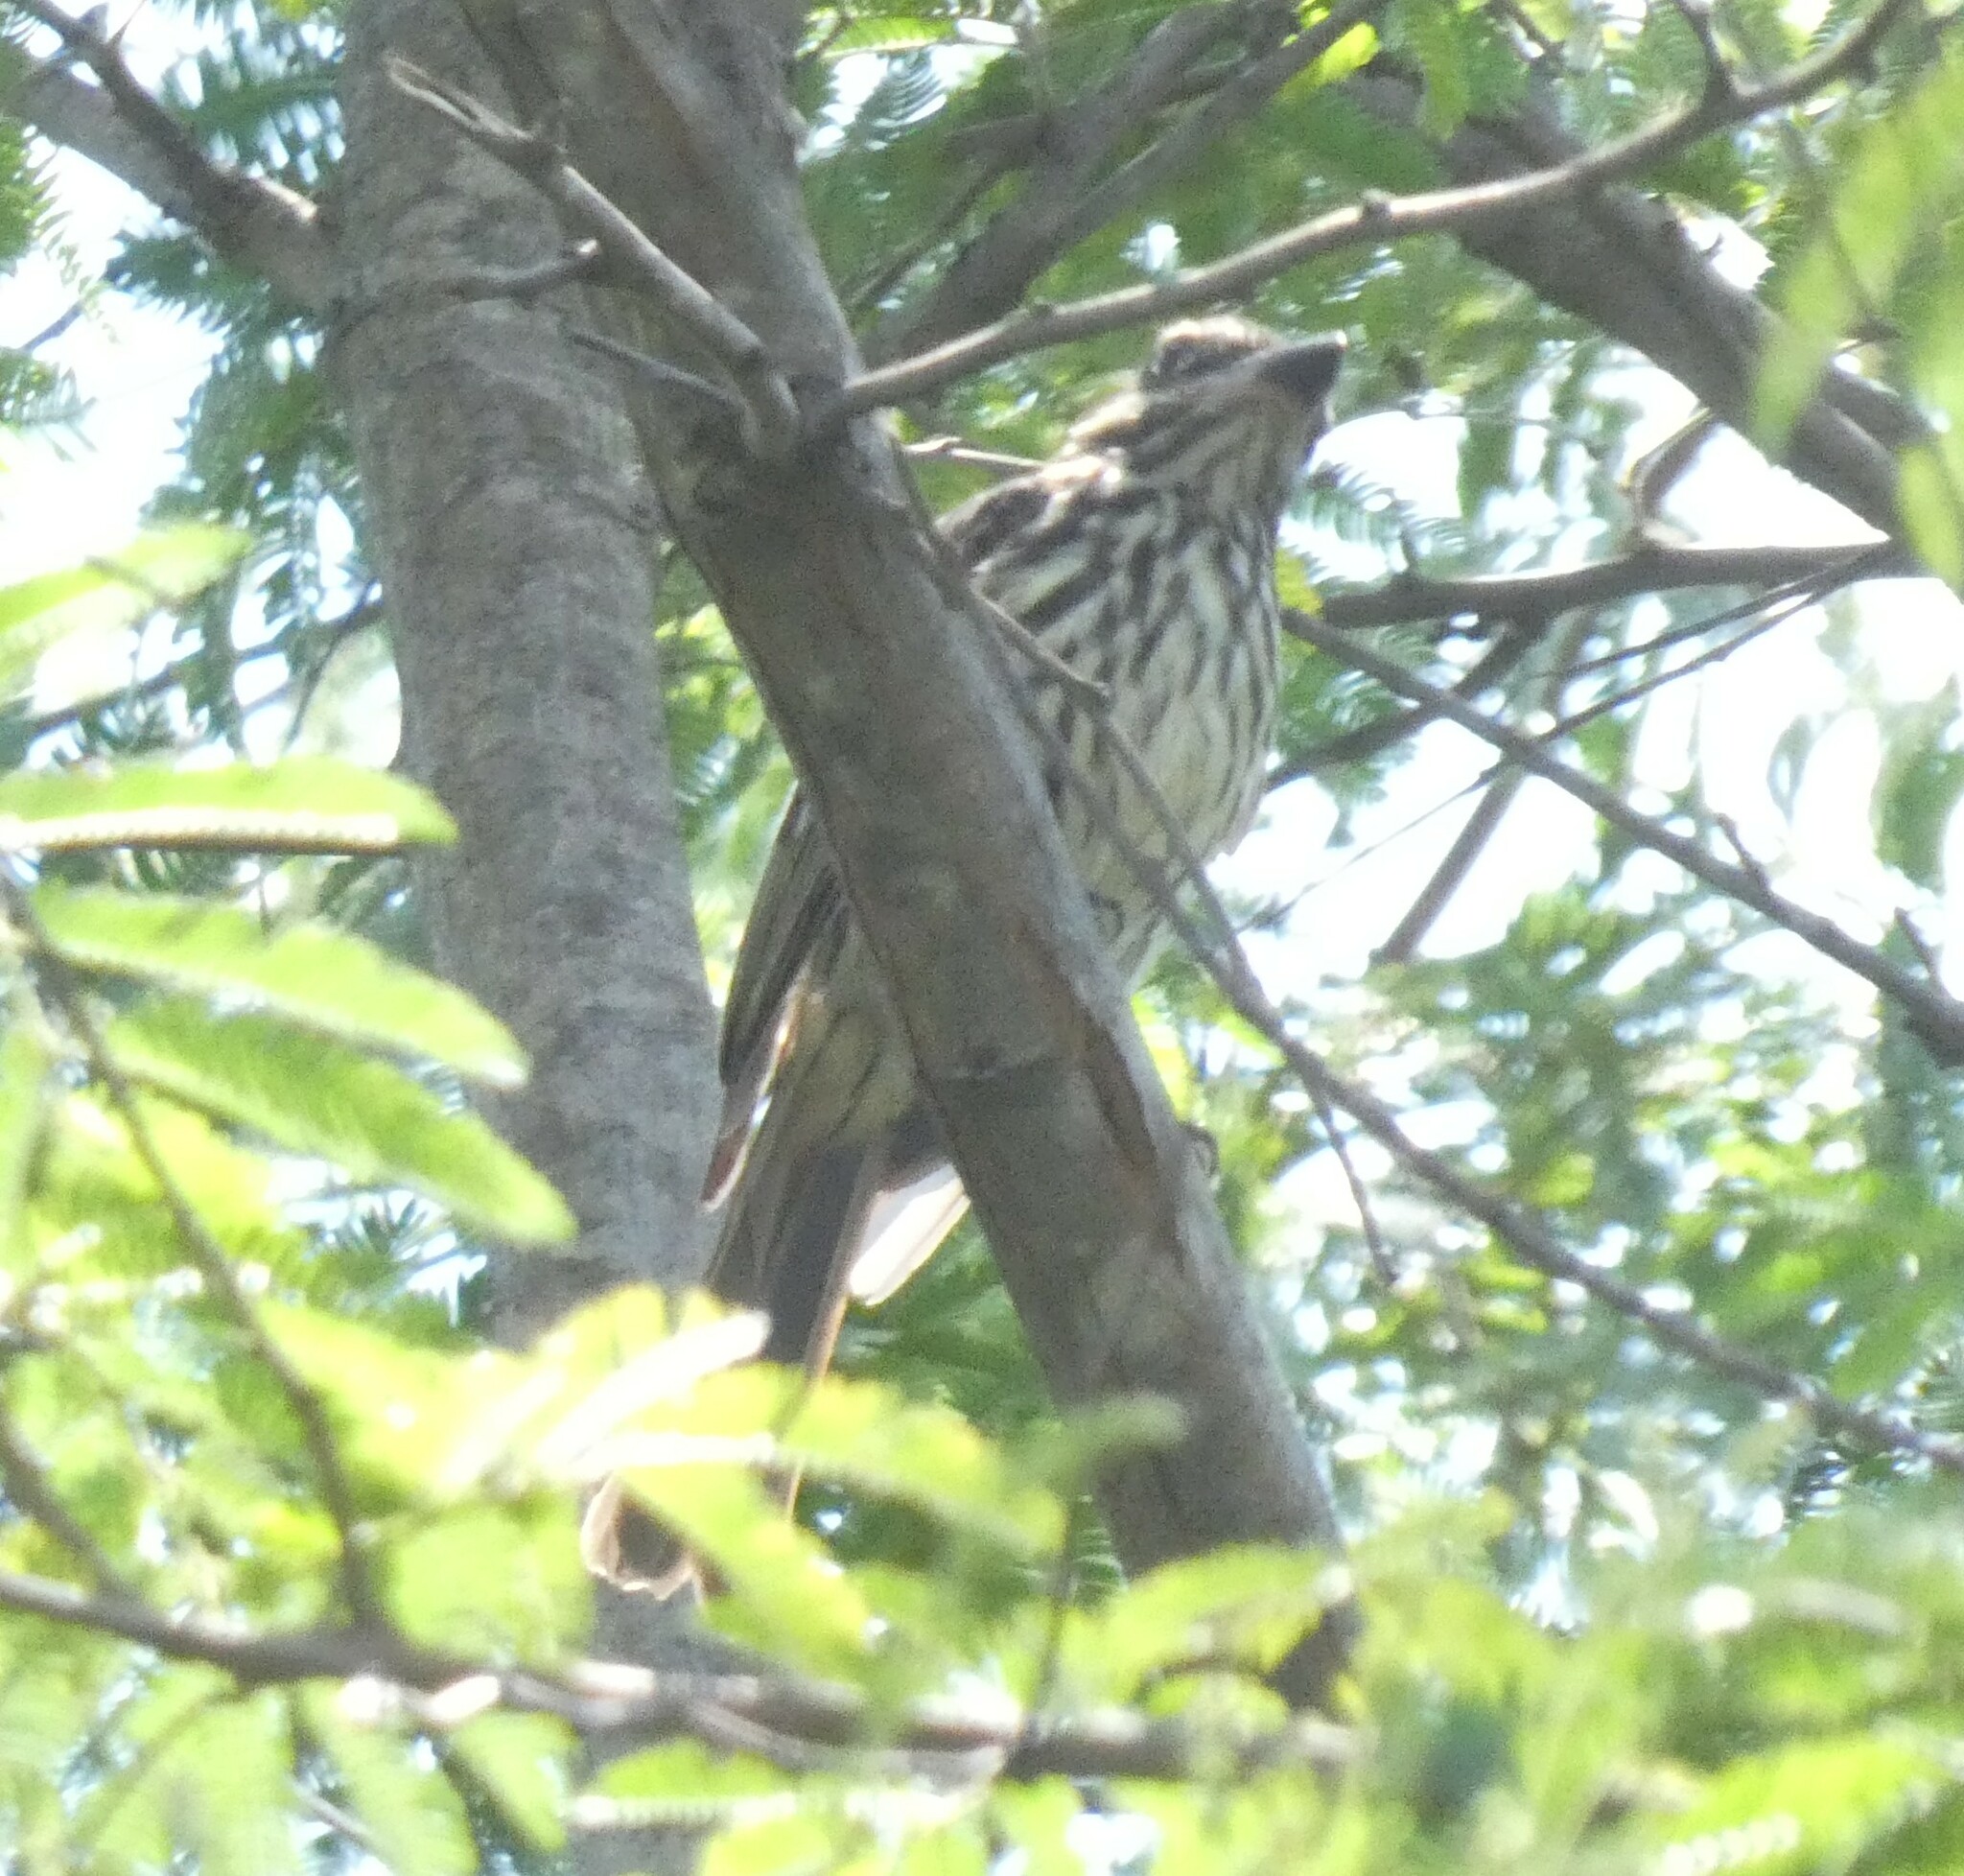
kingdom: Animalia
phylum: Chordata
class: Aves
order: Passeriformes
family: Tyrannidae
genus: Myiodynastes
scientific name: Myiodynastes maculatus
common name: Streaked flycatcher
